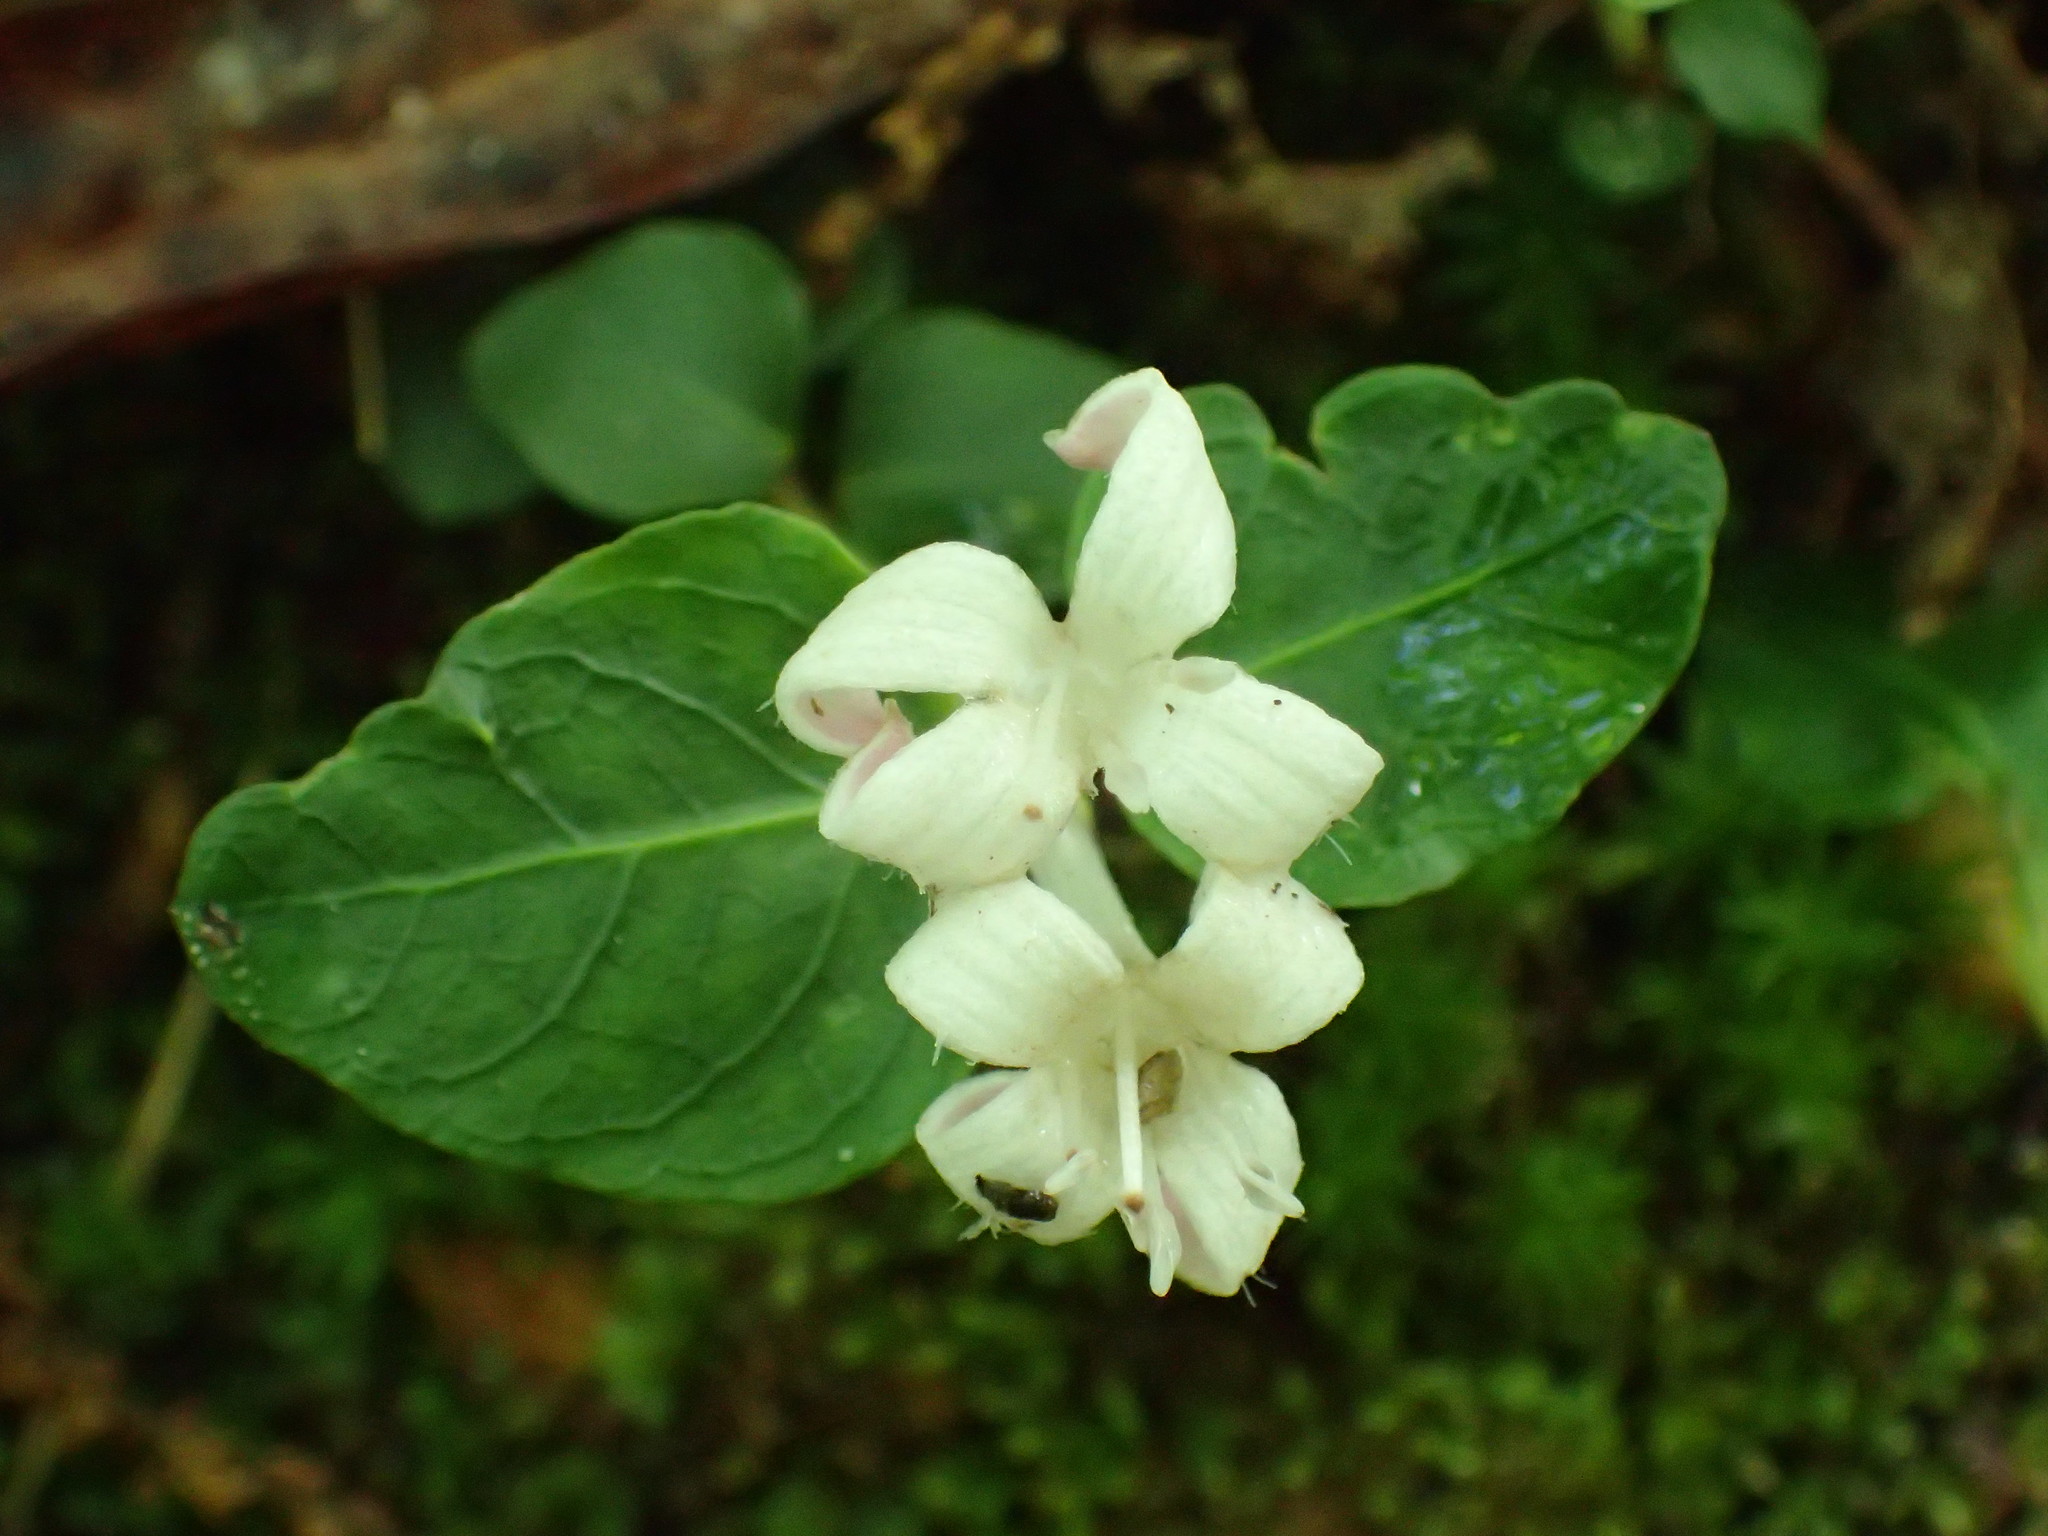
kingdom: Plantae
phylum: Tracheophyta
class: Magnoliopsida
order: Gentianales
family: Rubiaceae
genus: Mitchella
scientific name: Mitchella repens
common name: Partridge-berry
